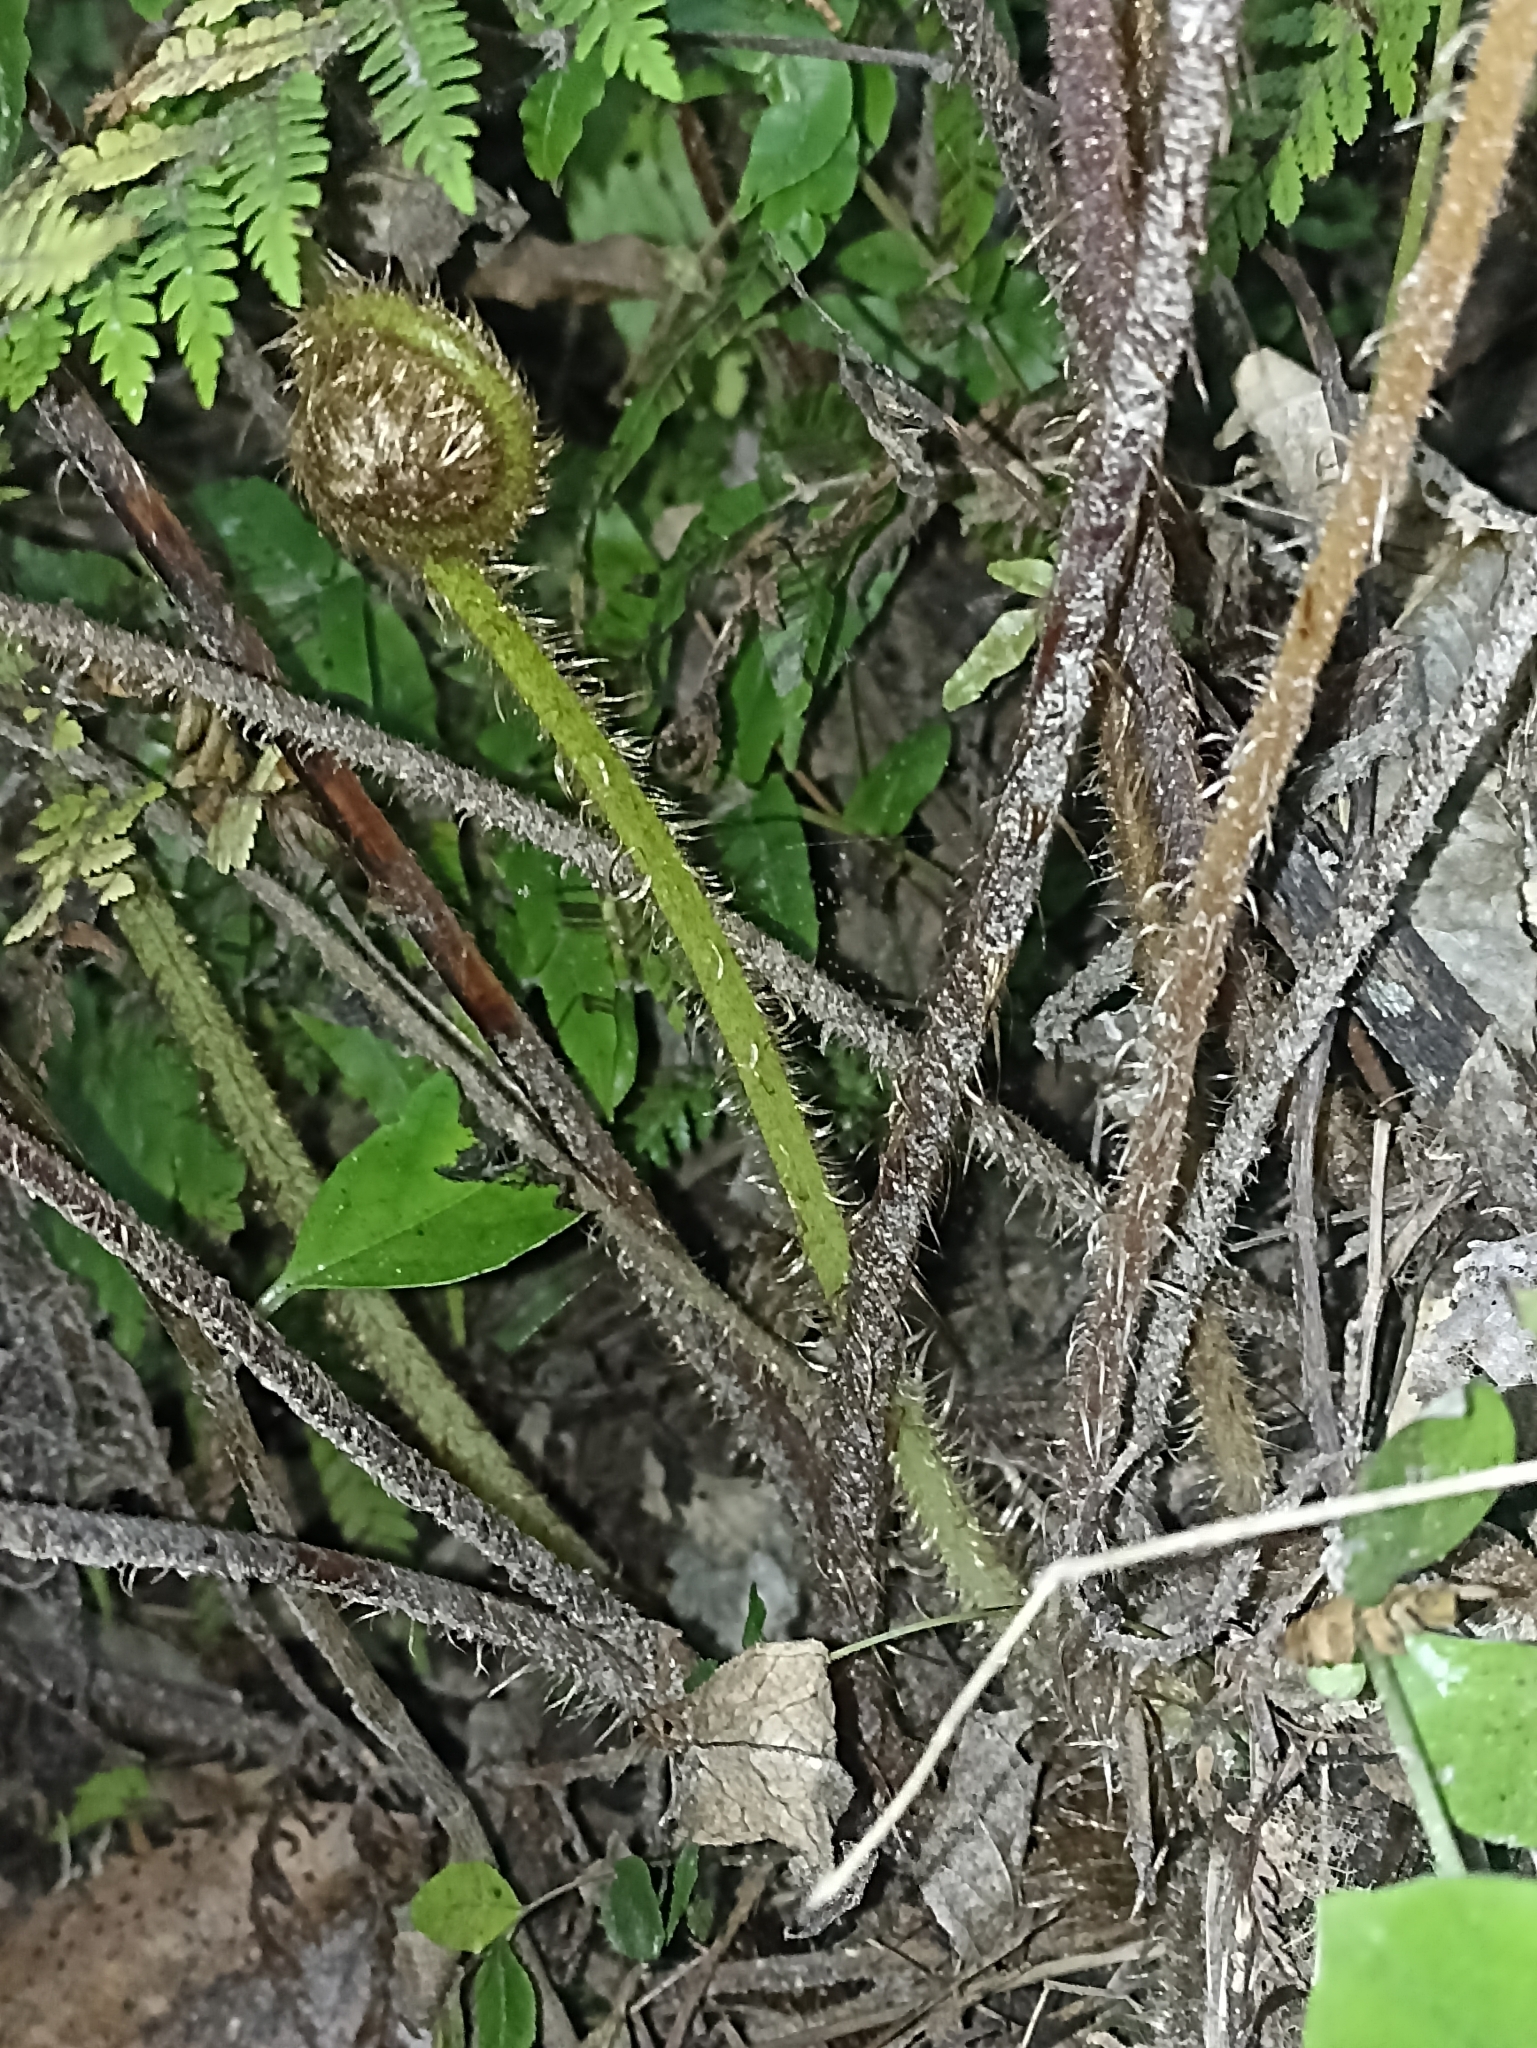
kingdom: Plantae
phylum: Tracheophyta
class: Polypodiopsida
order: Cyatheales
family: Cyatheaceae
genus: Sphaeropteris
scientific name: Sphaeropteris medullaris
